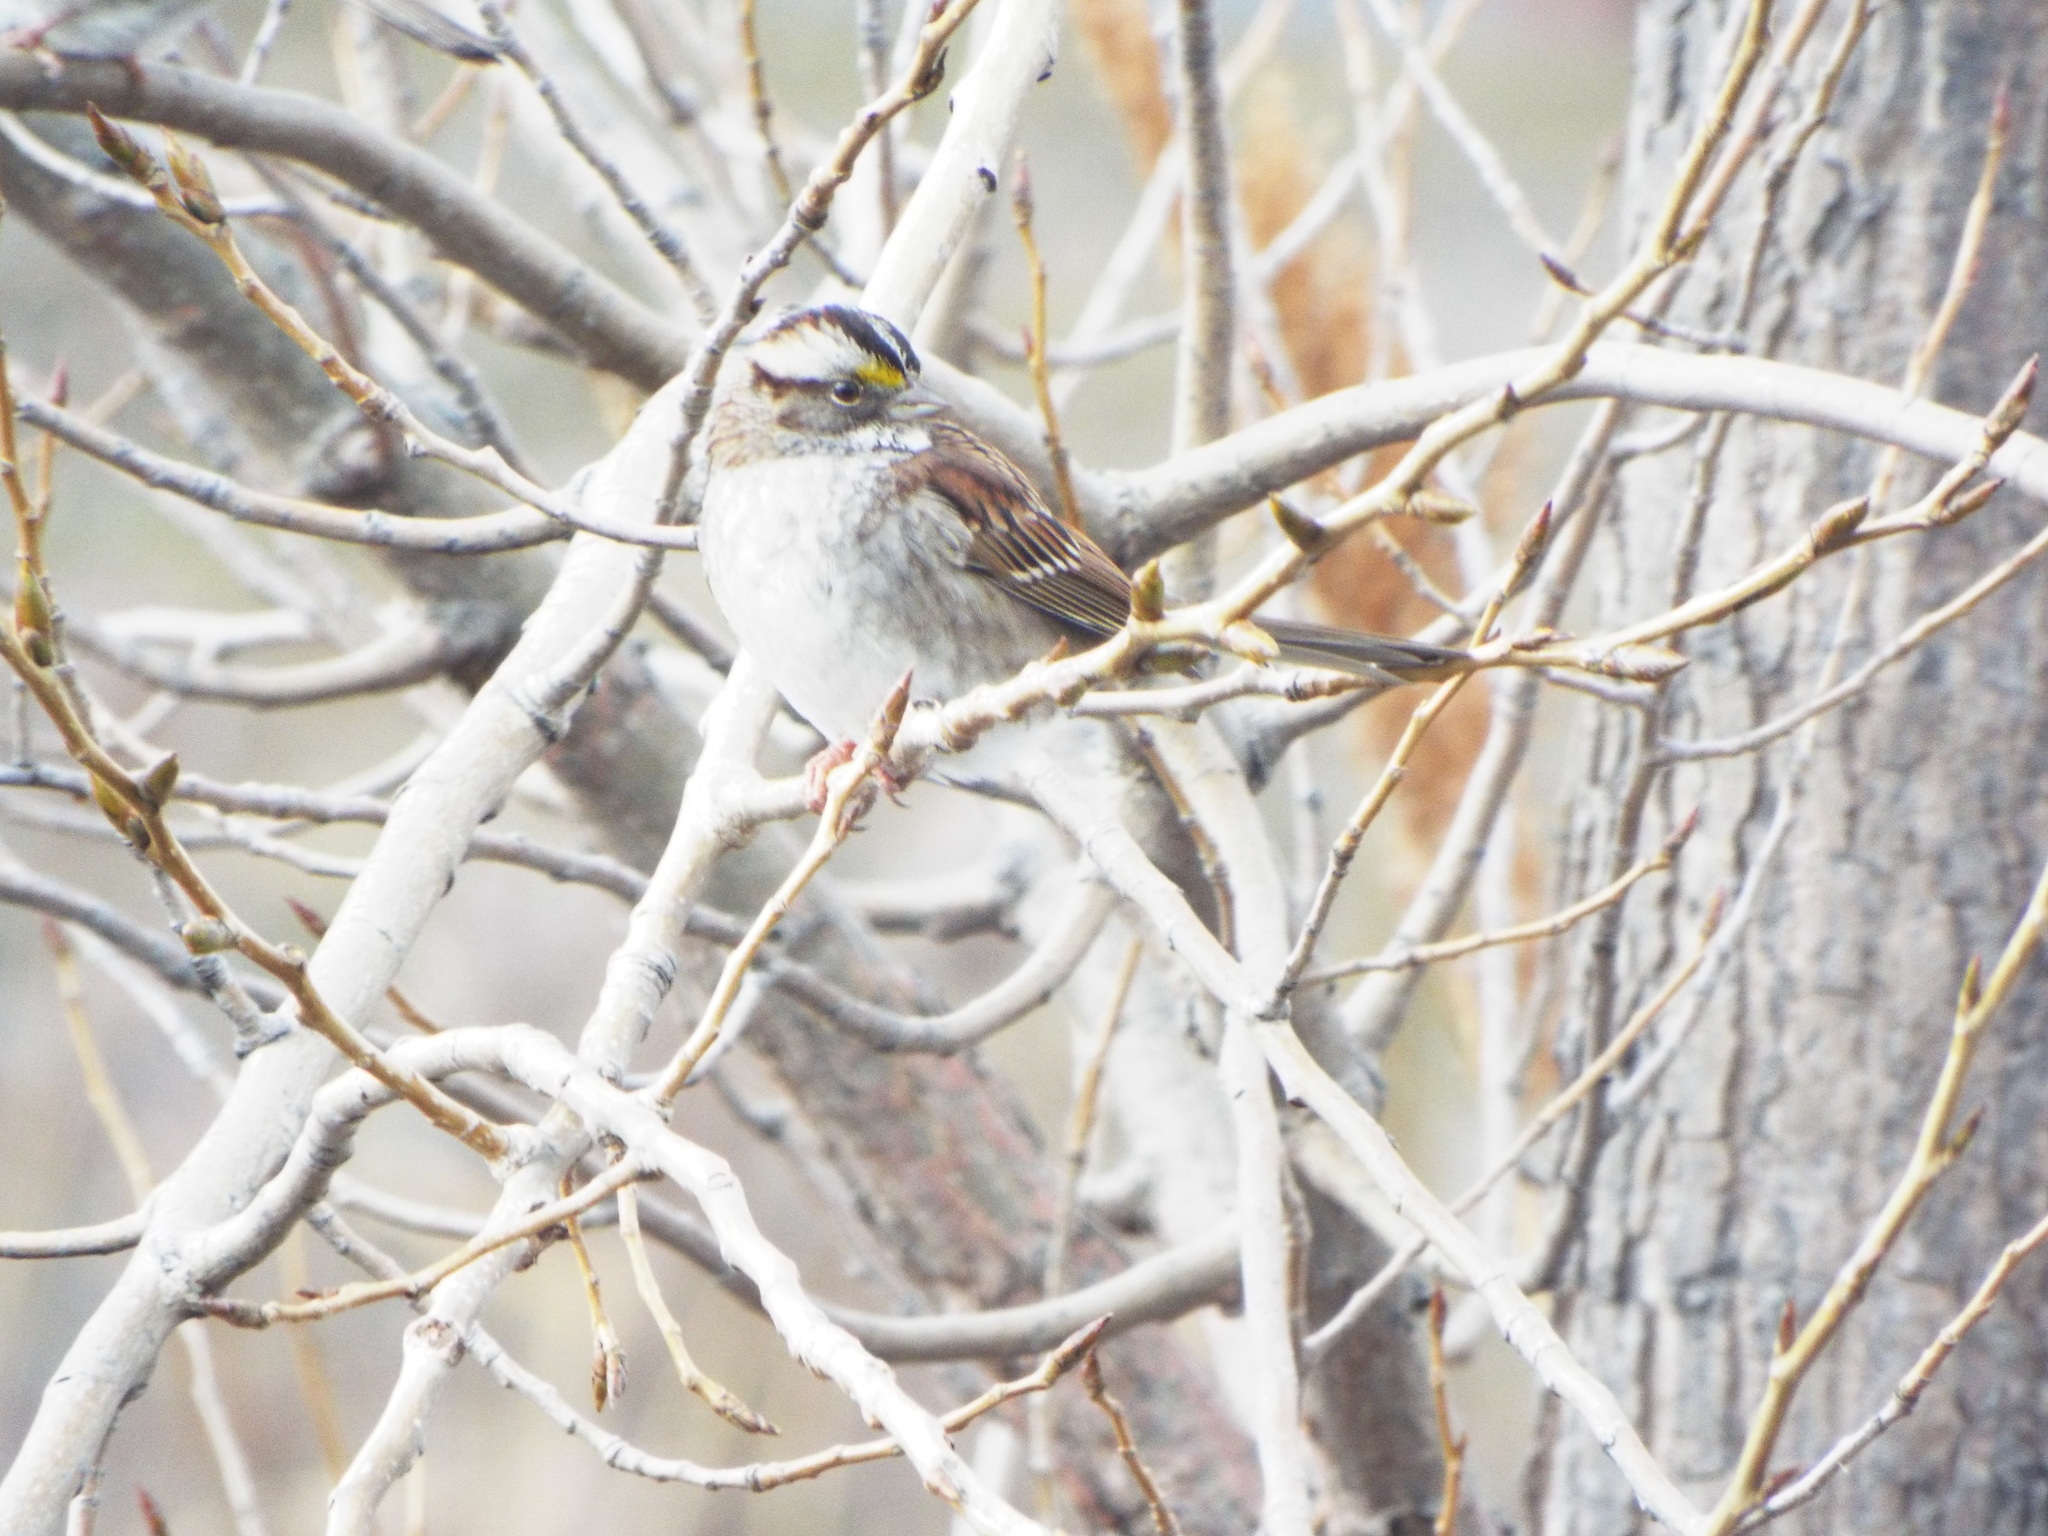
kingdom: Animalia
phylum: Chordata
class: Aves
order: Passeriformes
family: Passerellidae
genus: Zonotrichia
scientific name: Zonotrichia albicollis
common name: White-throated sparrow
